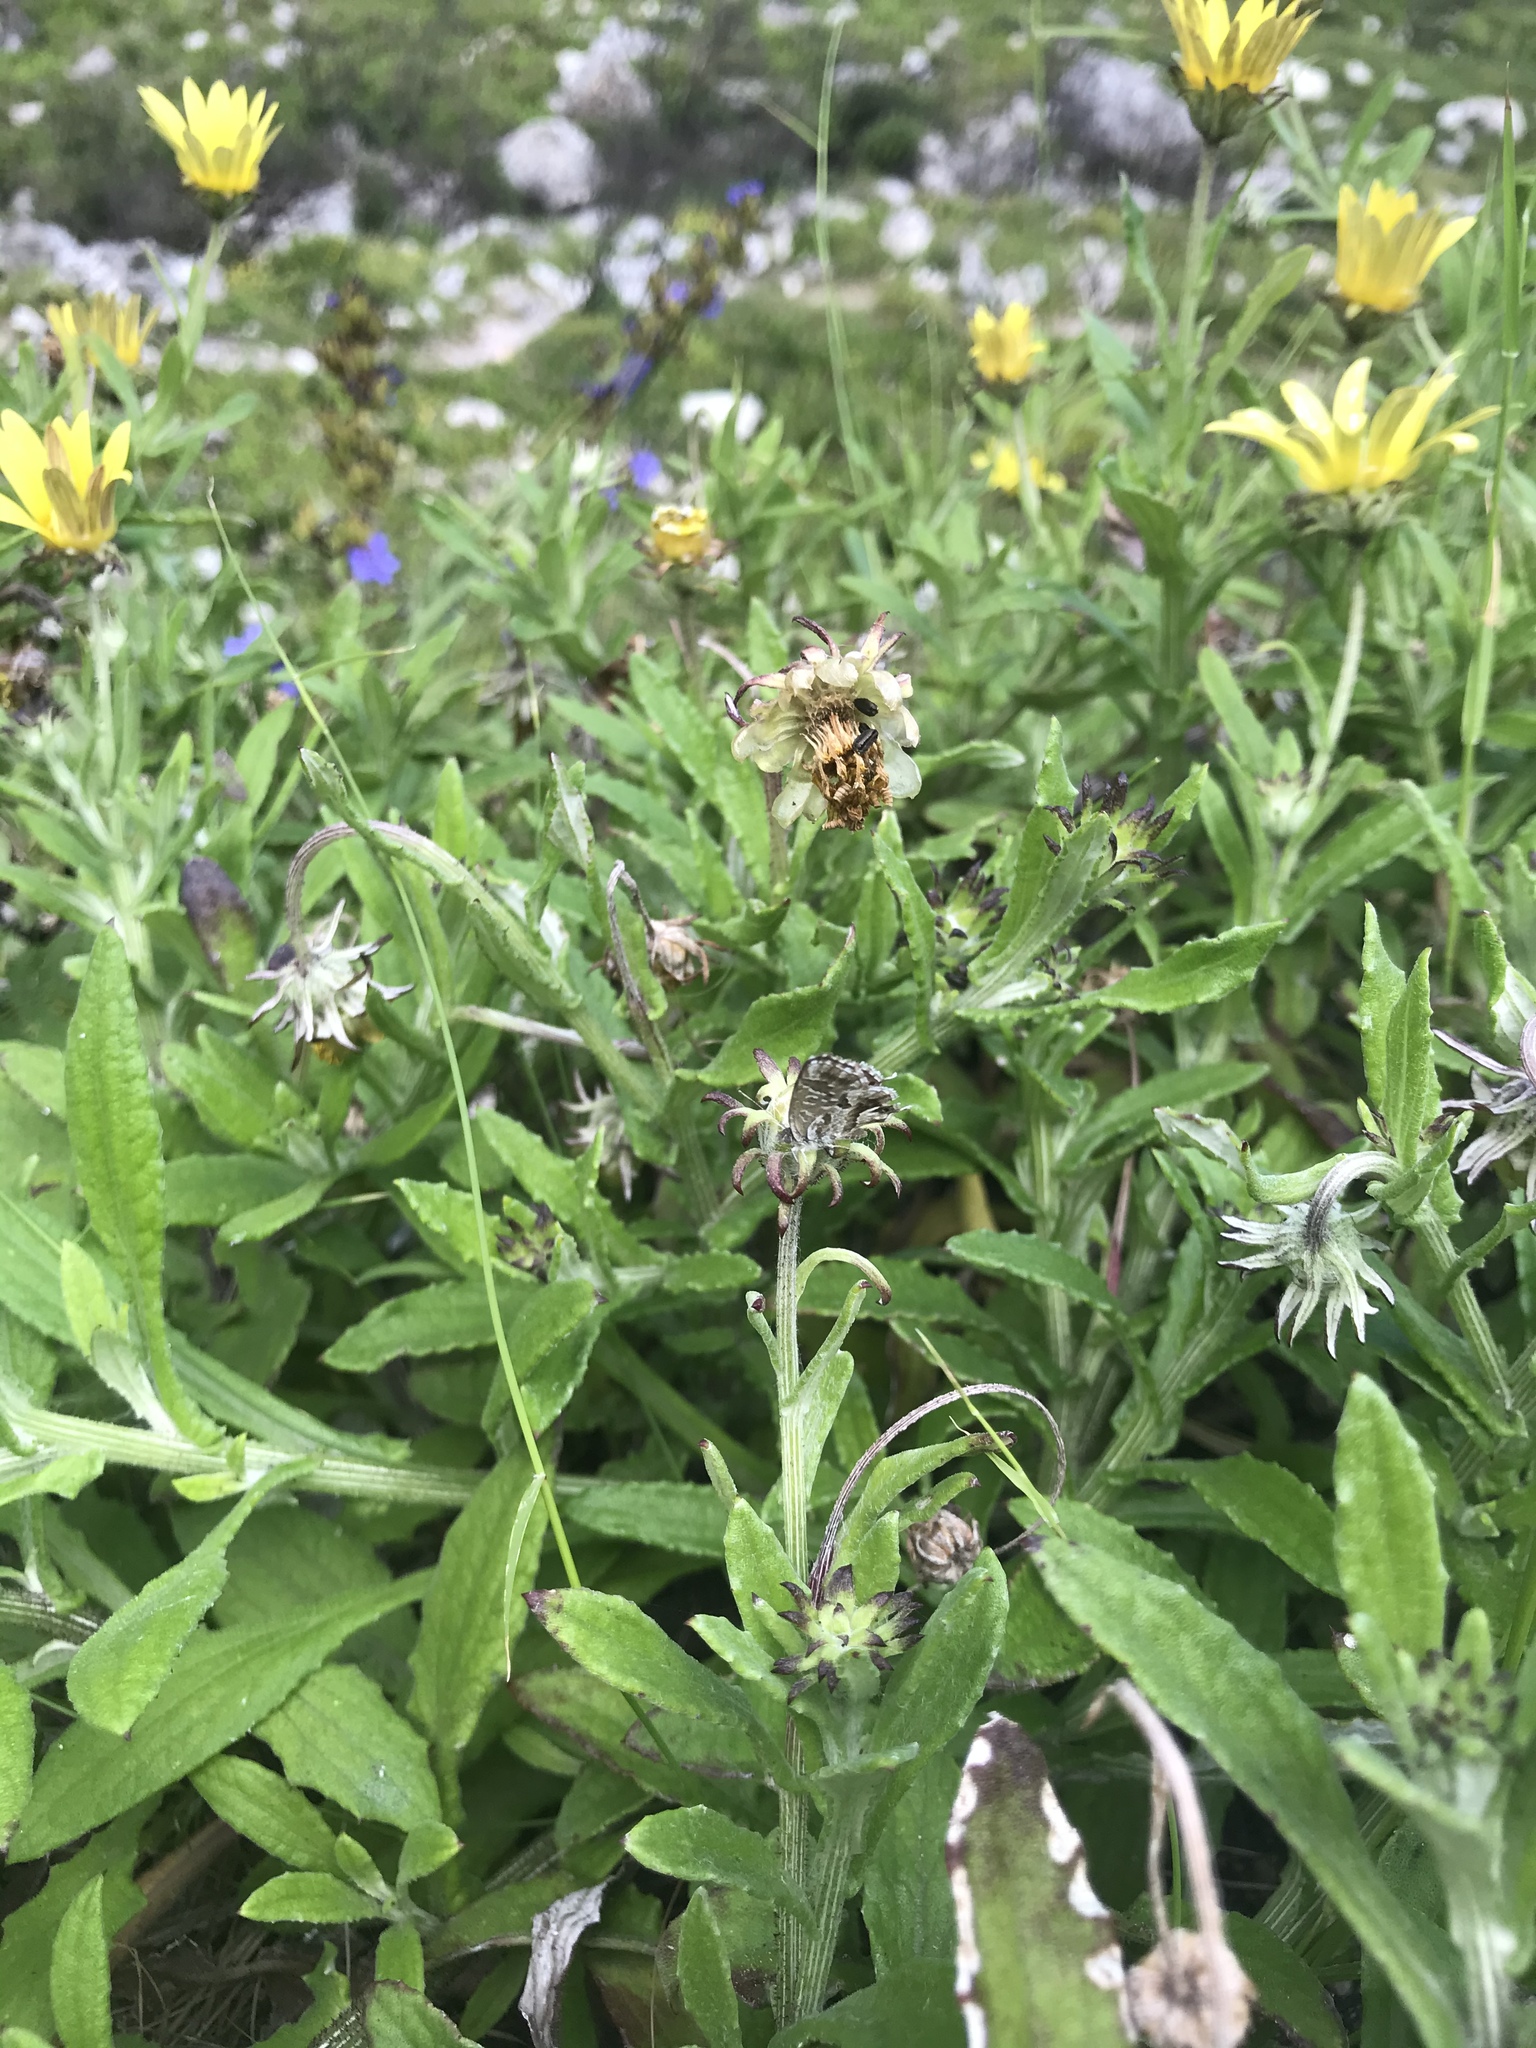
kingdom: Animalia
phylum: Arthropoda
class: Insecta
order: Lepidoptera
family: Lycaenidae
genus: Cacyreus
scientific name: Cacyreus marshalli
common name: Geranium bronze
